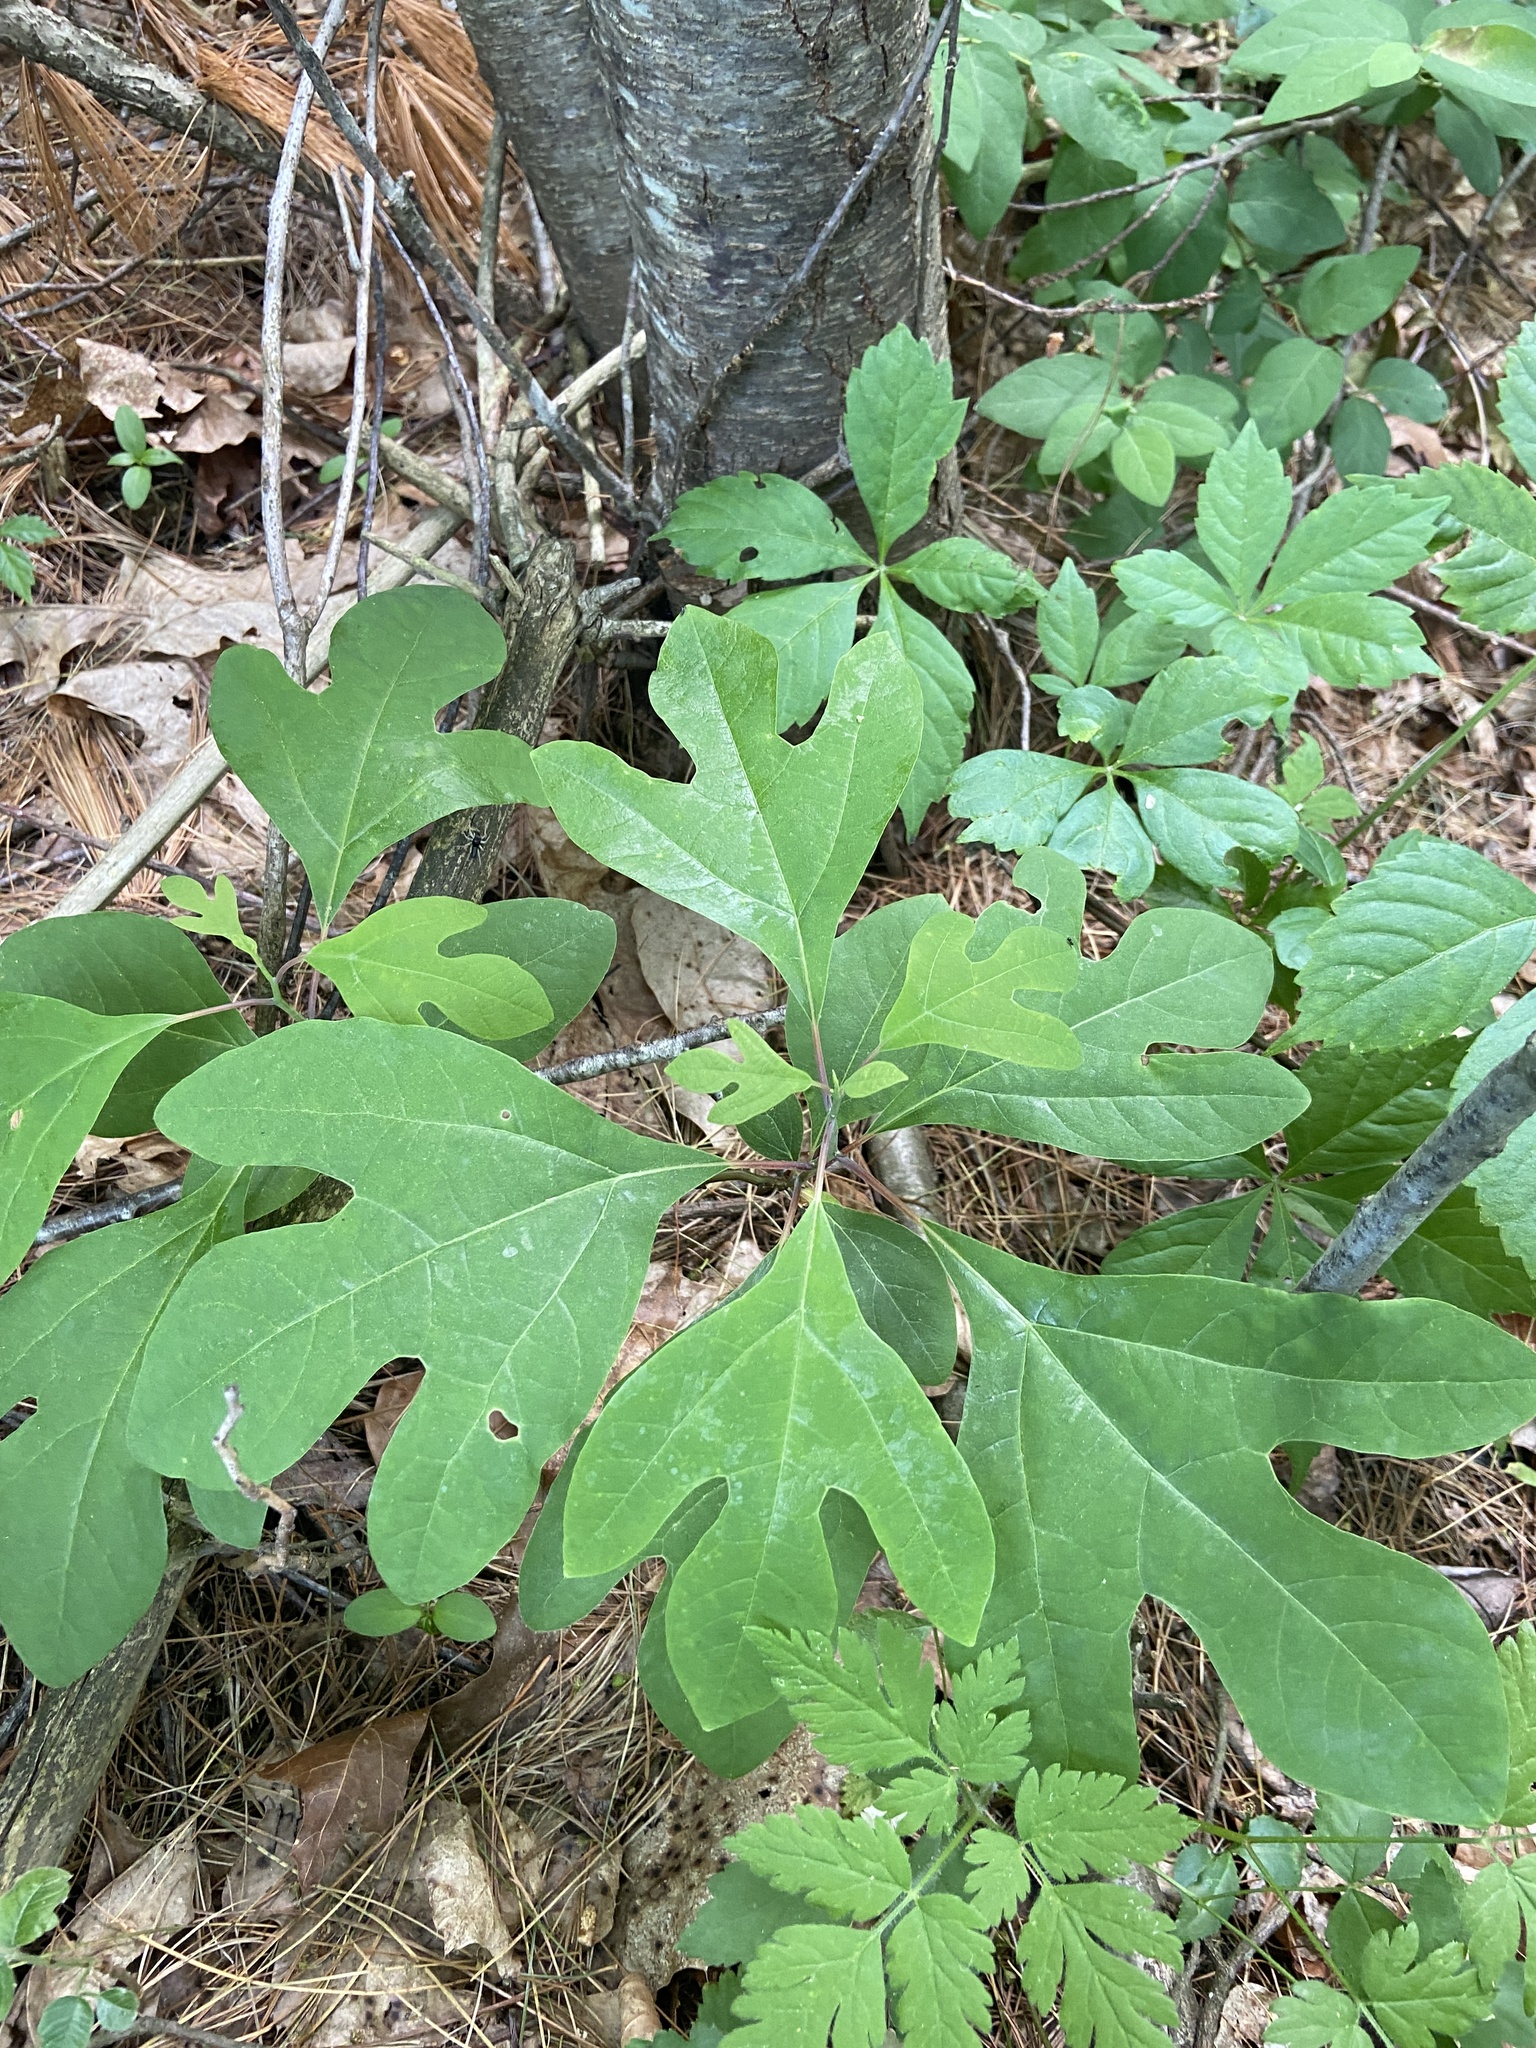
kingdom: Plantae
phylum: Tracheophyta
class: Magnoliopsida
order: Laurales
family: Lauraceae
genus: Sassafras
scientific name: Sassafras albidum
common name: Sassafras
